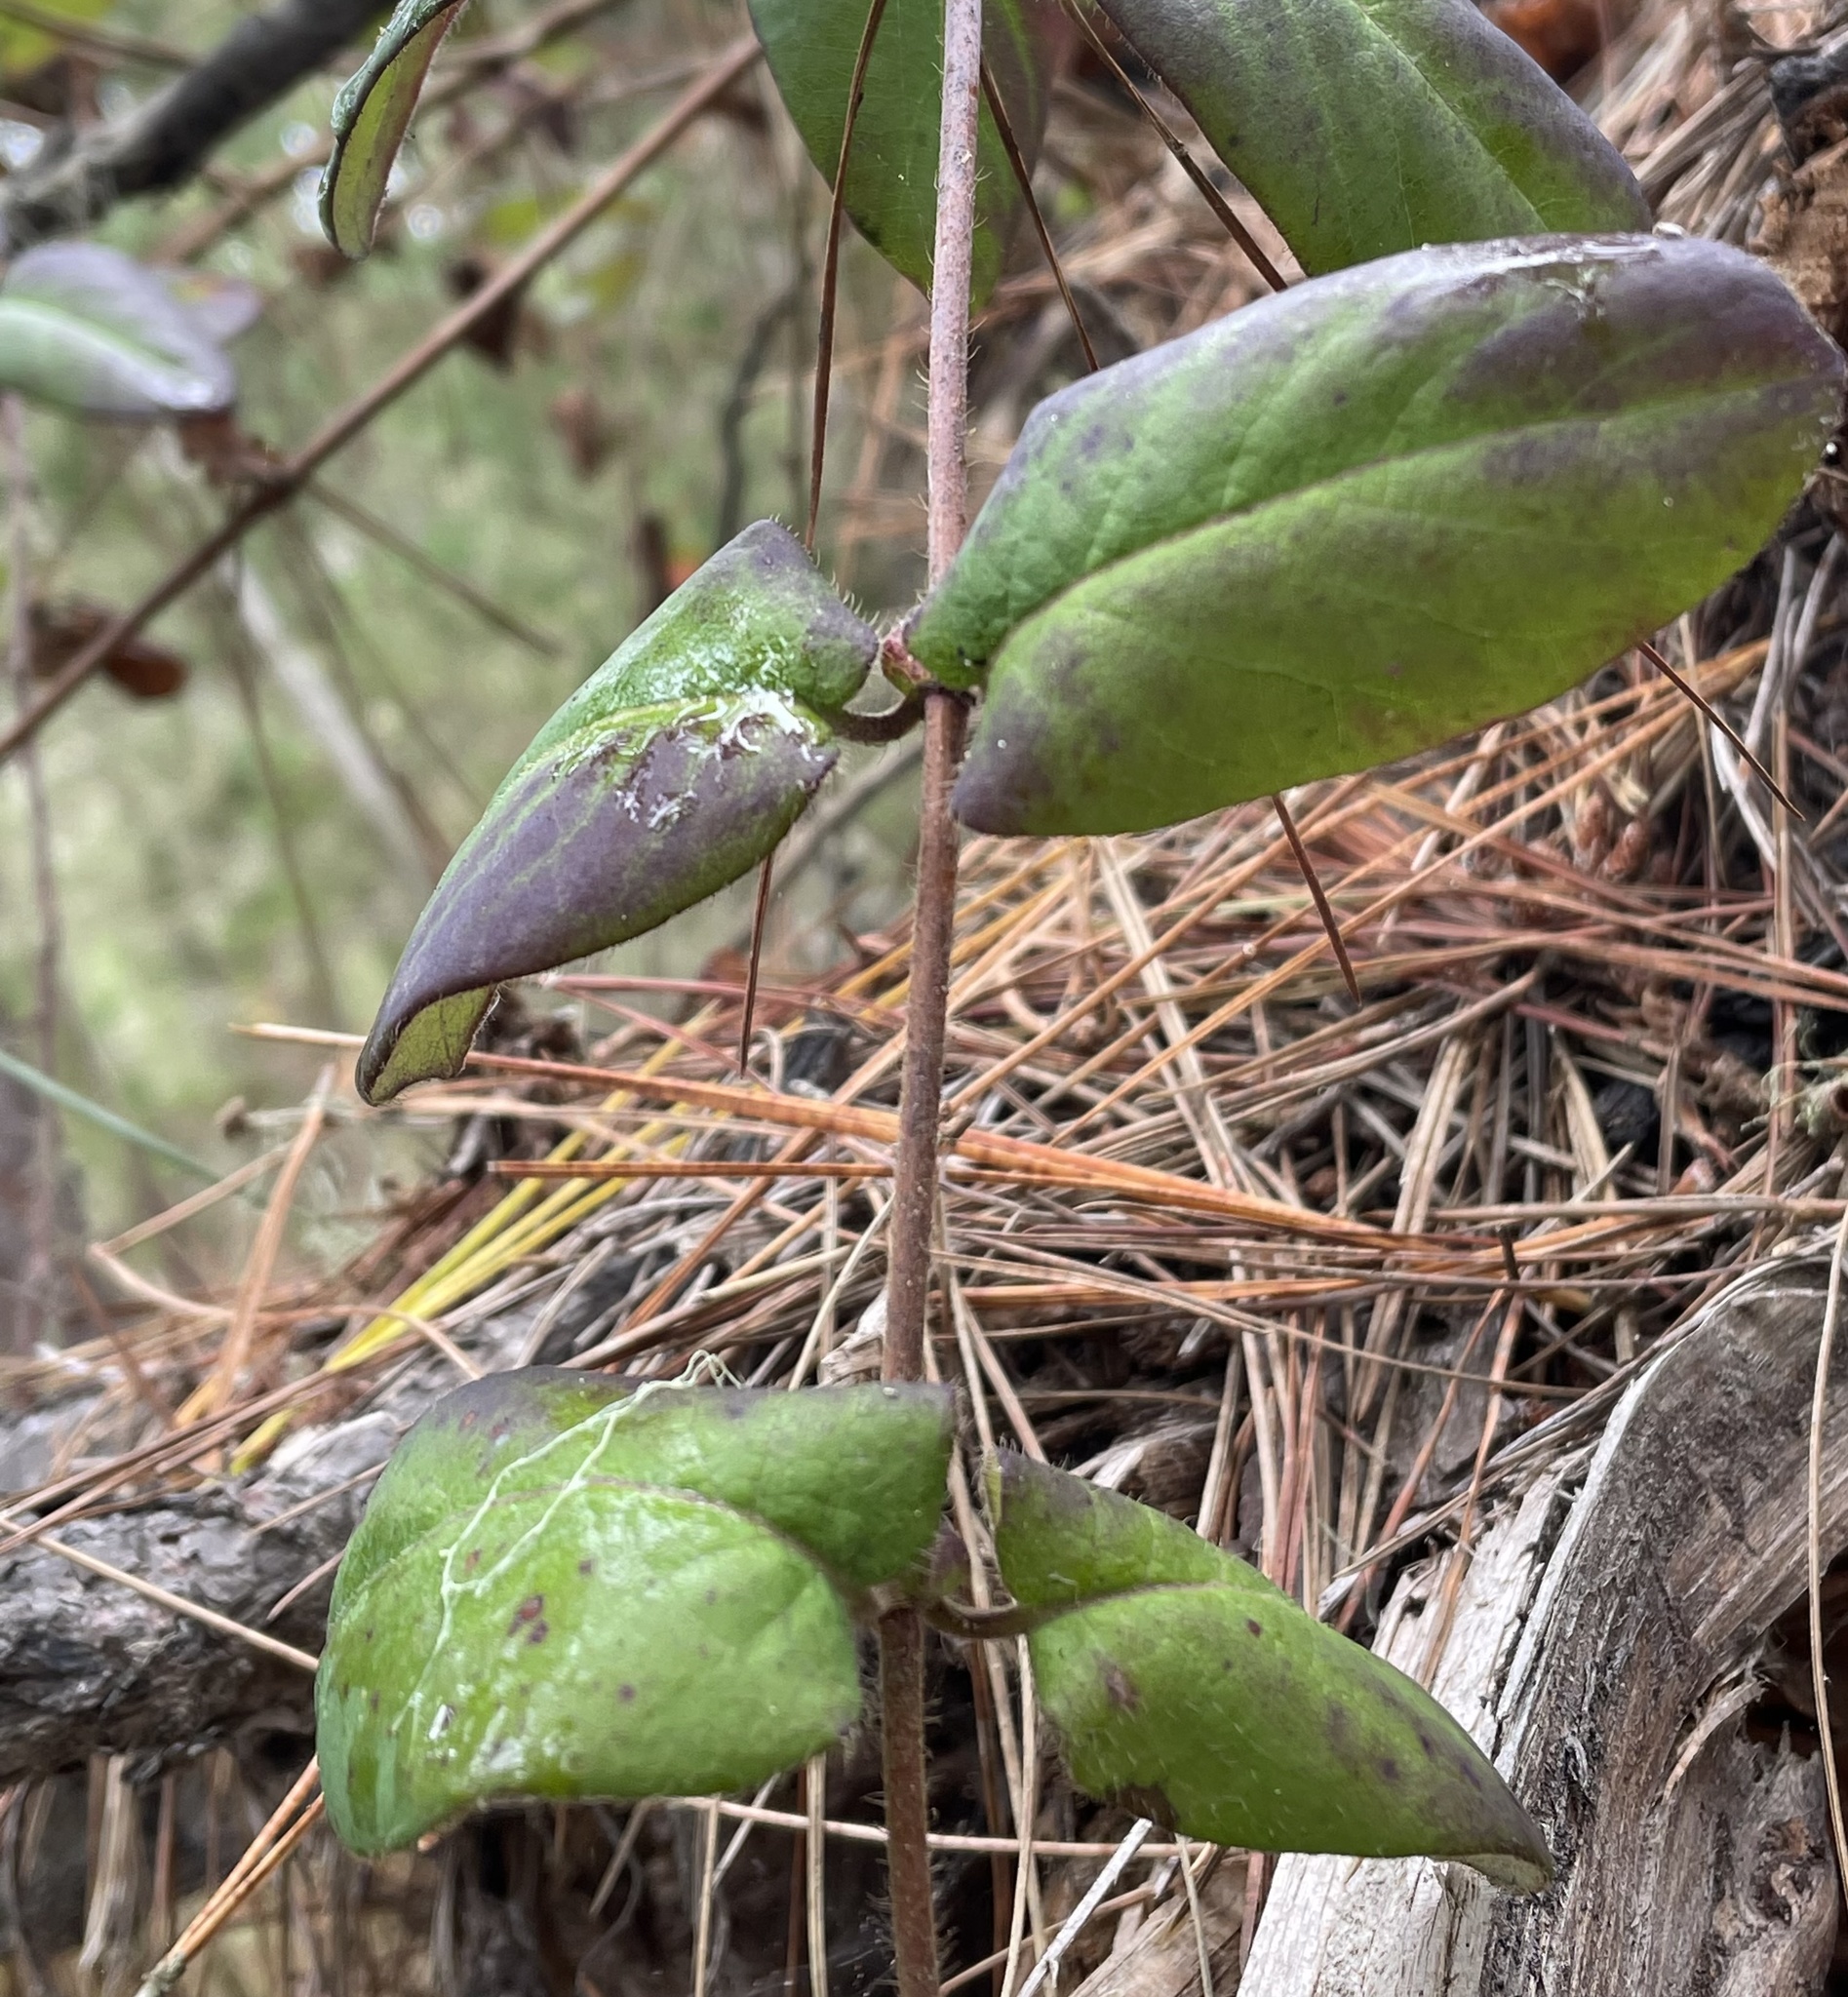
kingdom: Plantae
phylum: Tracheophyta
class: Magnoliopsida
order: Dipsacales
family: Caprifoliaceae
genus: Lonicera
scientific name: Lonicera hispidula
